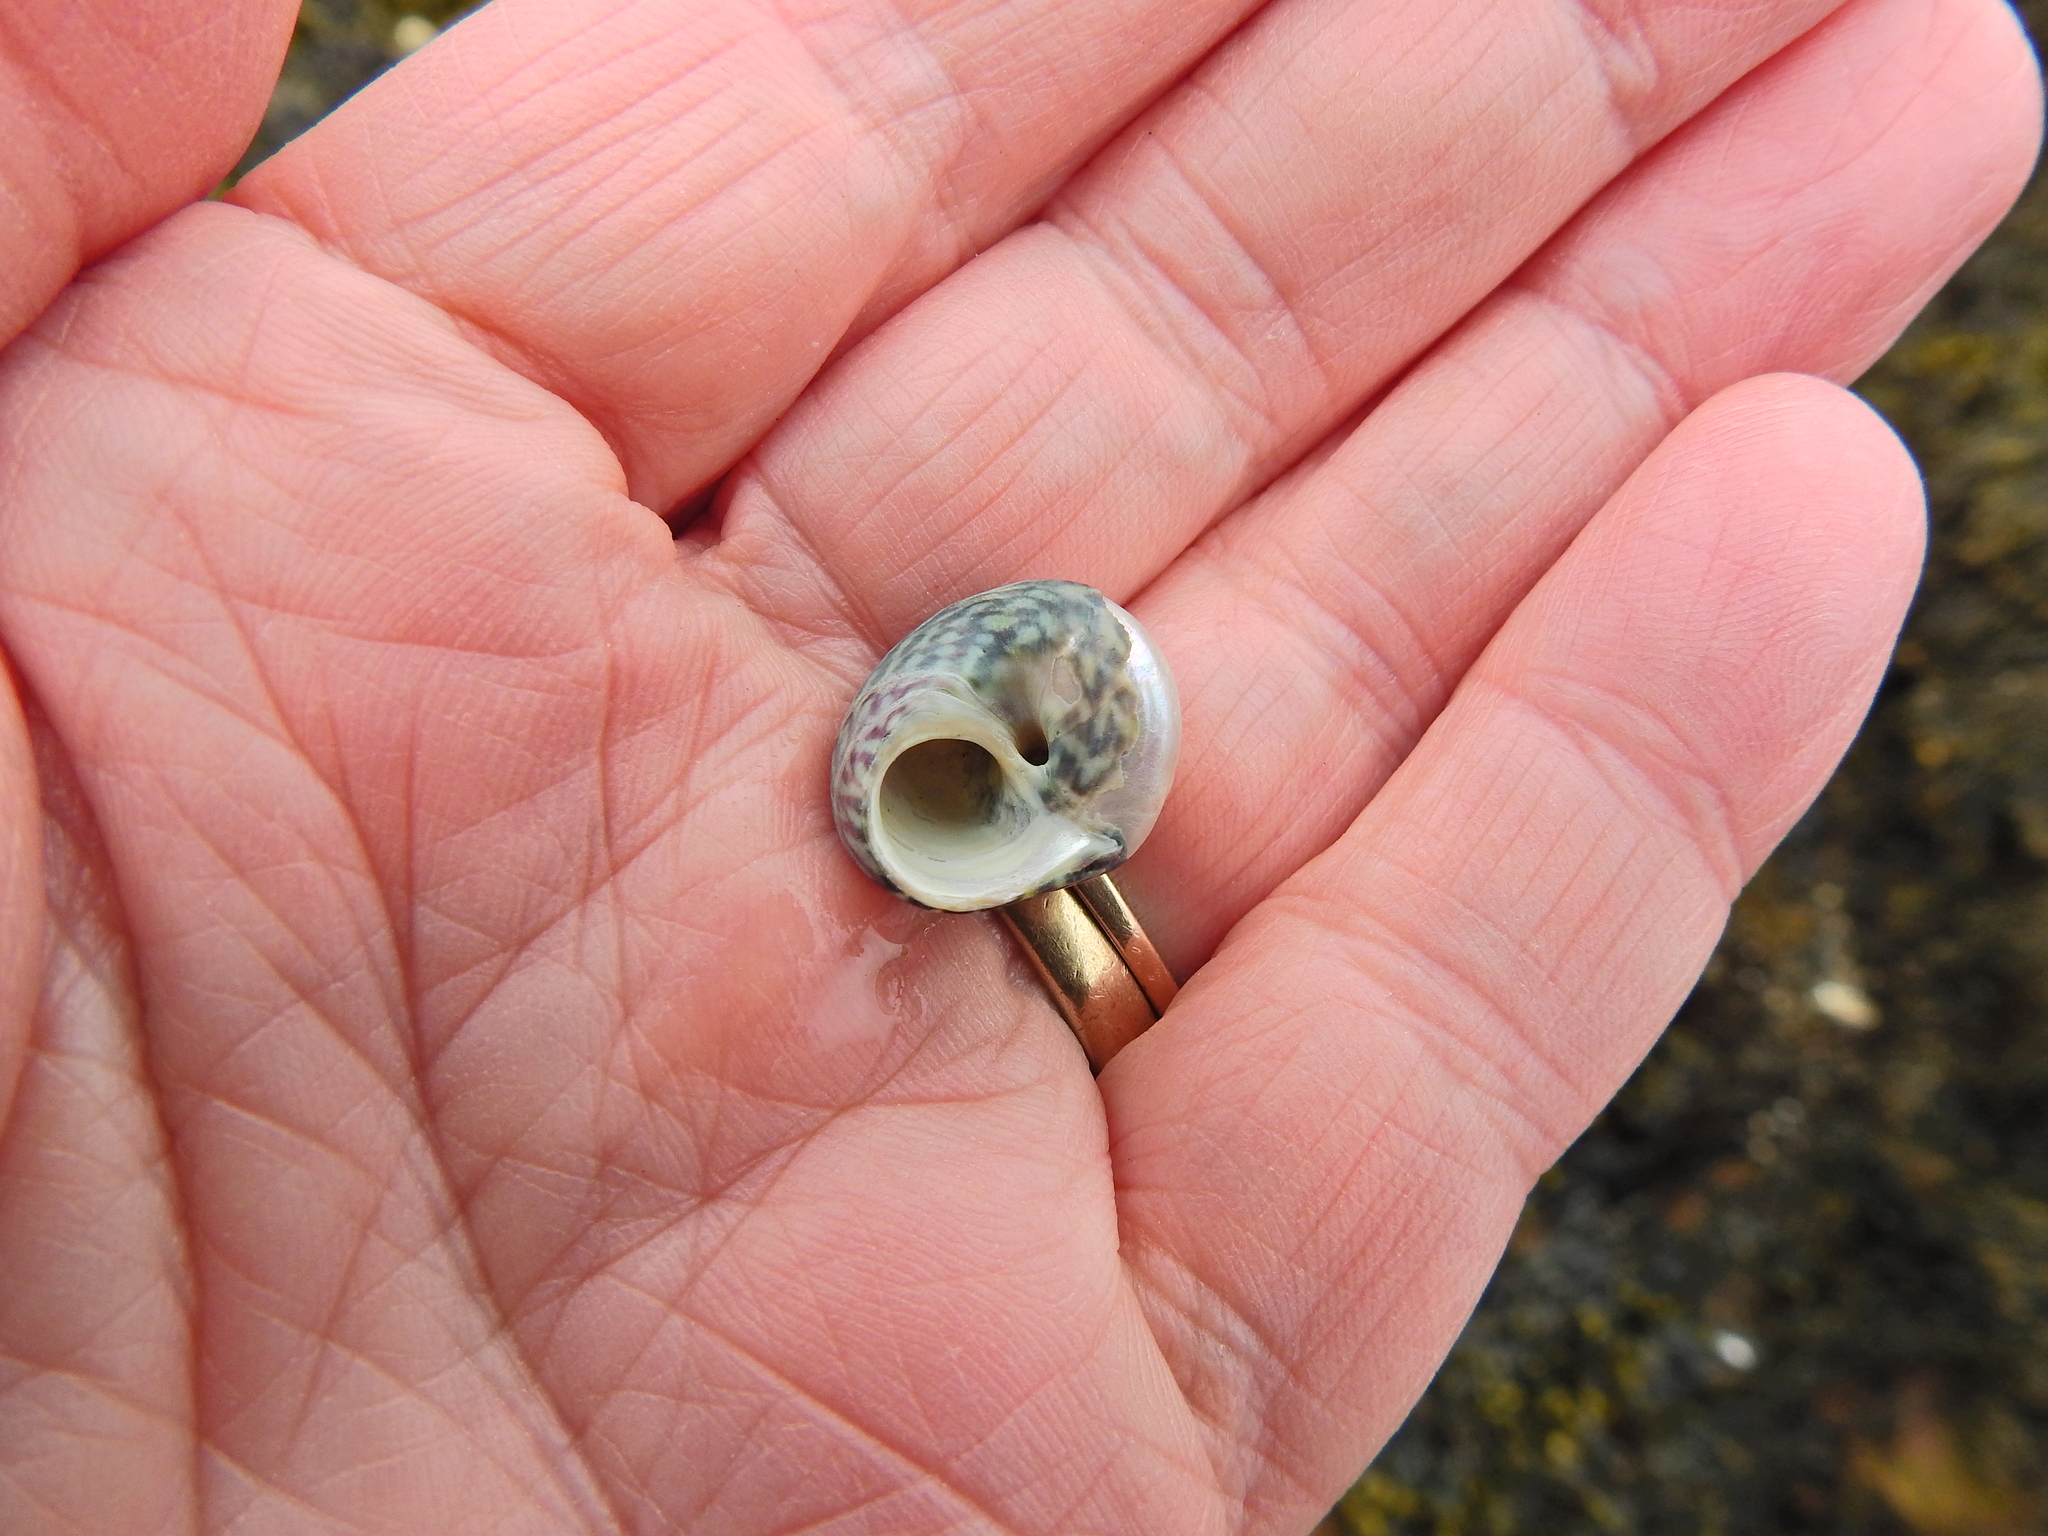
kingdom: Animalia
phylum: Mollusca
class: Gastropoda
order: Trochida
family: Trochidae
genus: Steromphala
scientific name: Steromphala umbilicalis
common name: Flat top shell
